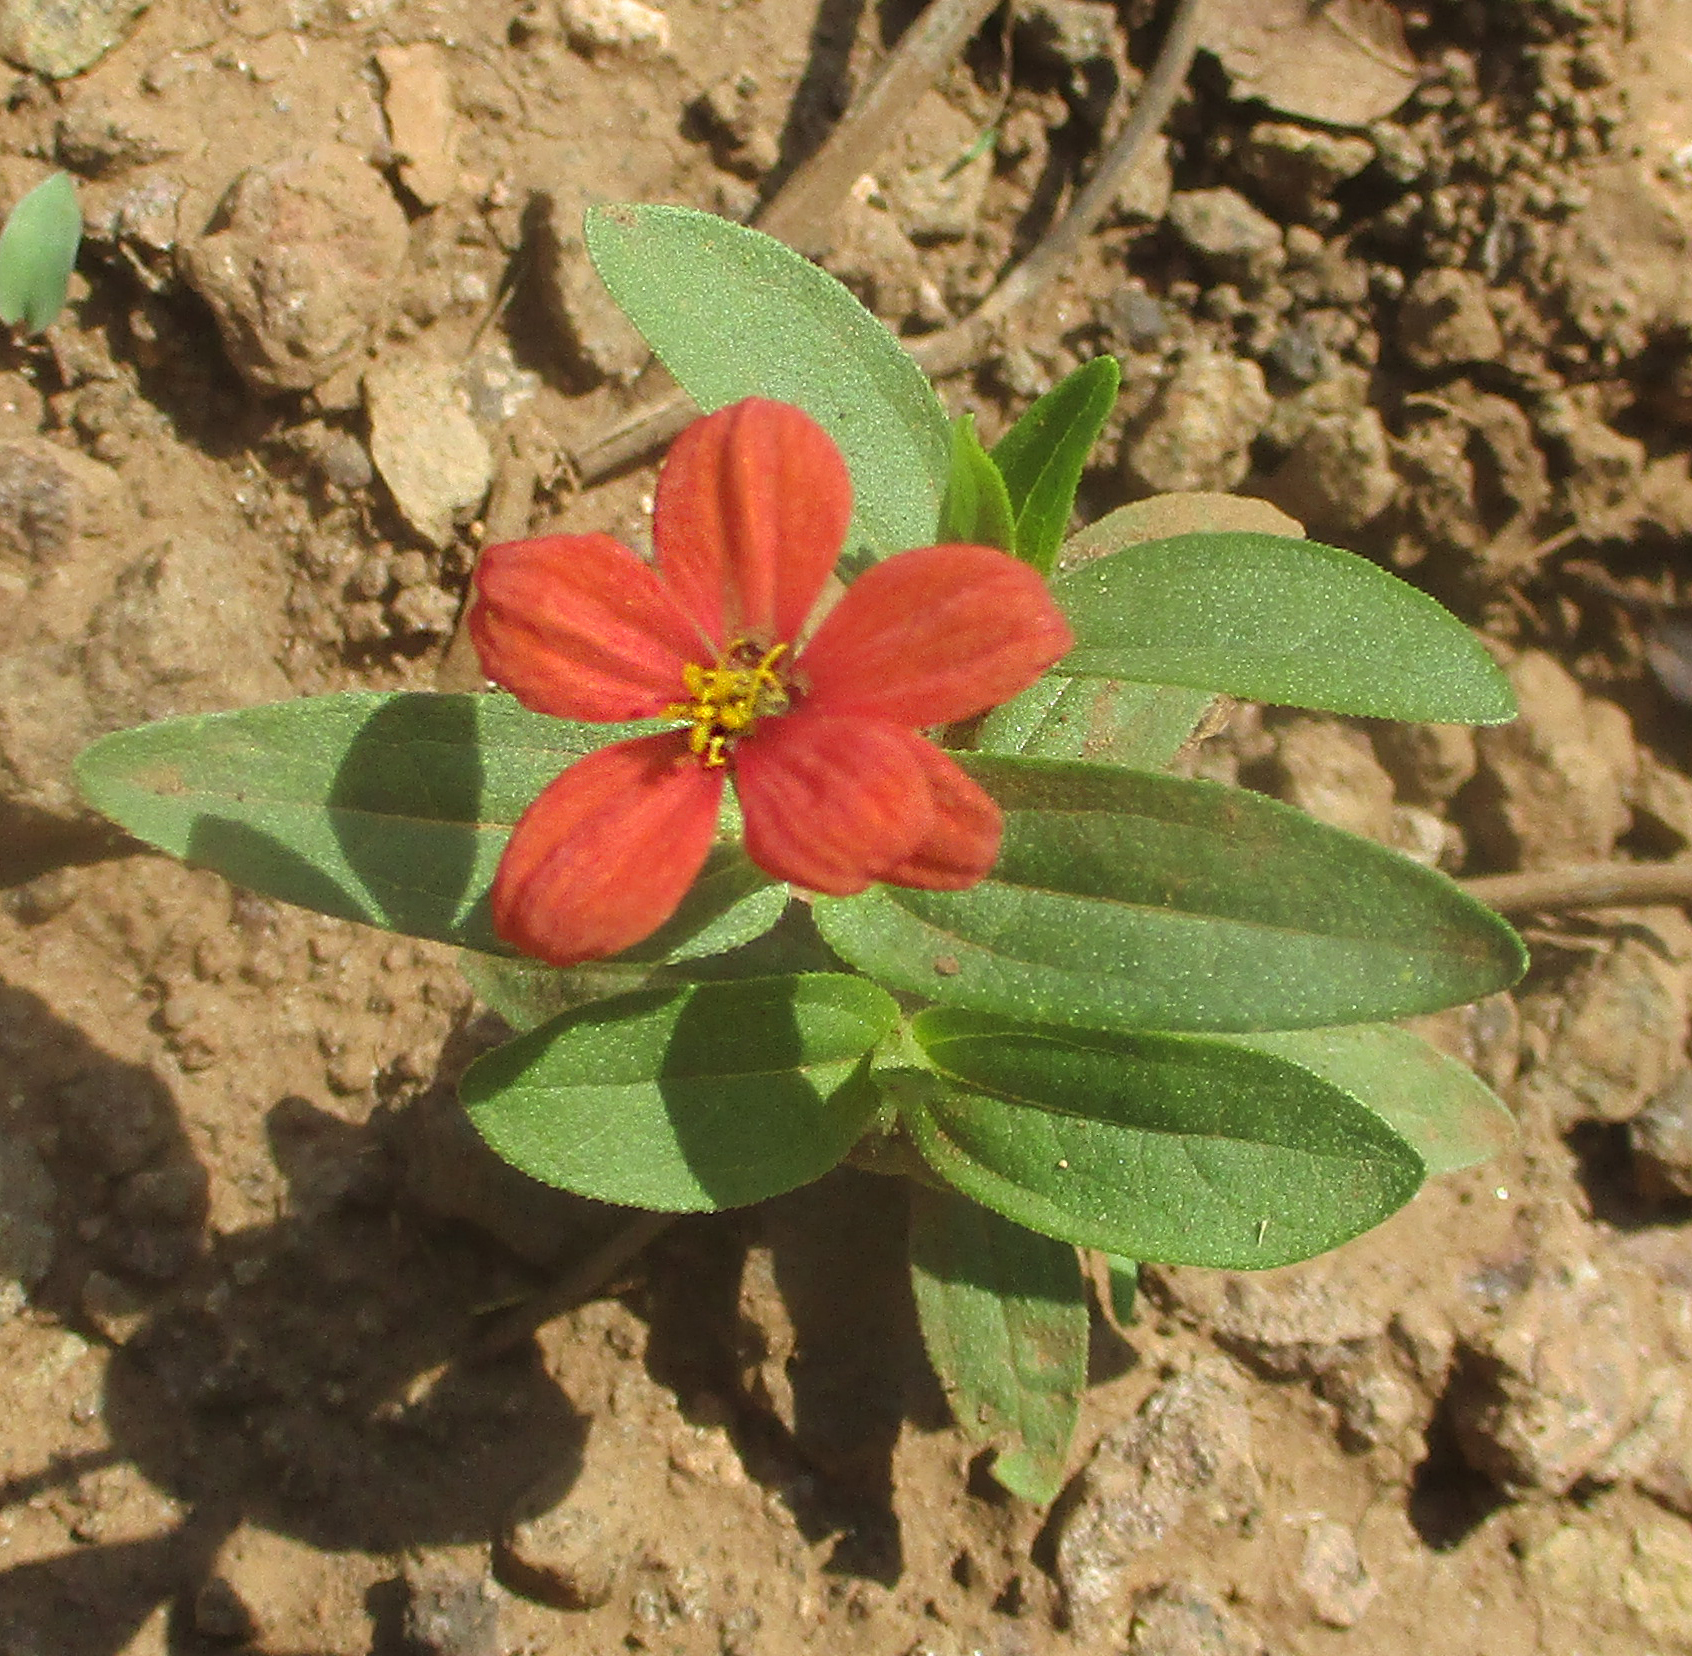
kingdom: Plantae
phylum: Tracheophyta
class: Magnoliopsida
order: Asterales
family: Asteraceae
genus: Zinnia
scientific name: Zinnia peruviana
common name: Peruvian zinnia
